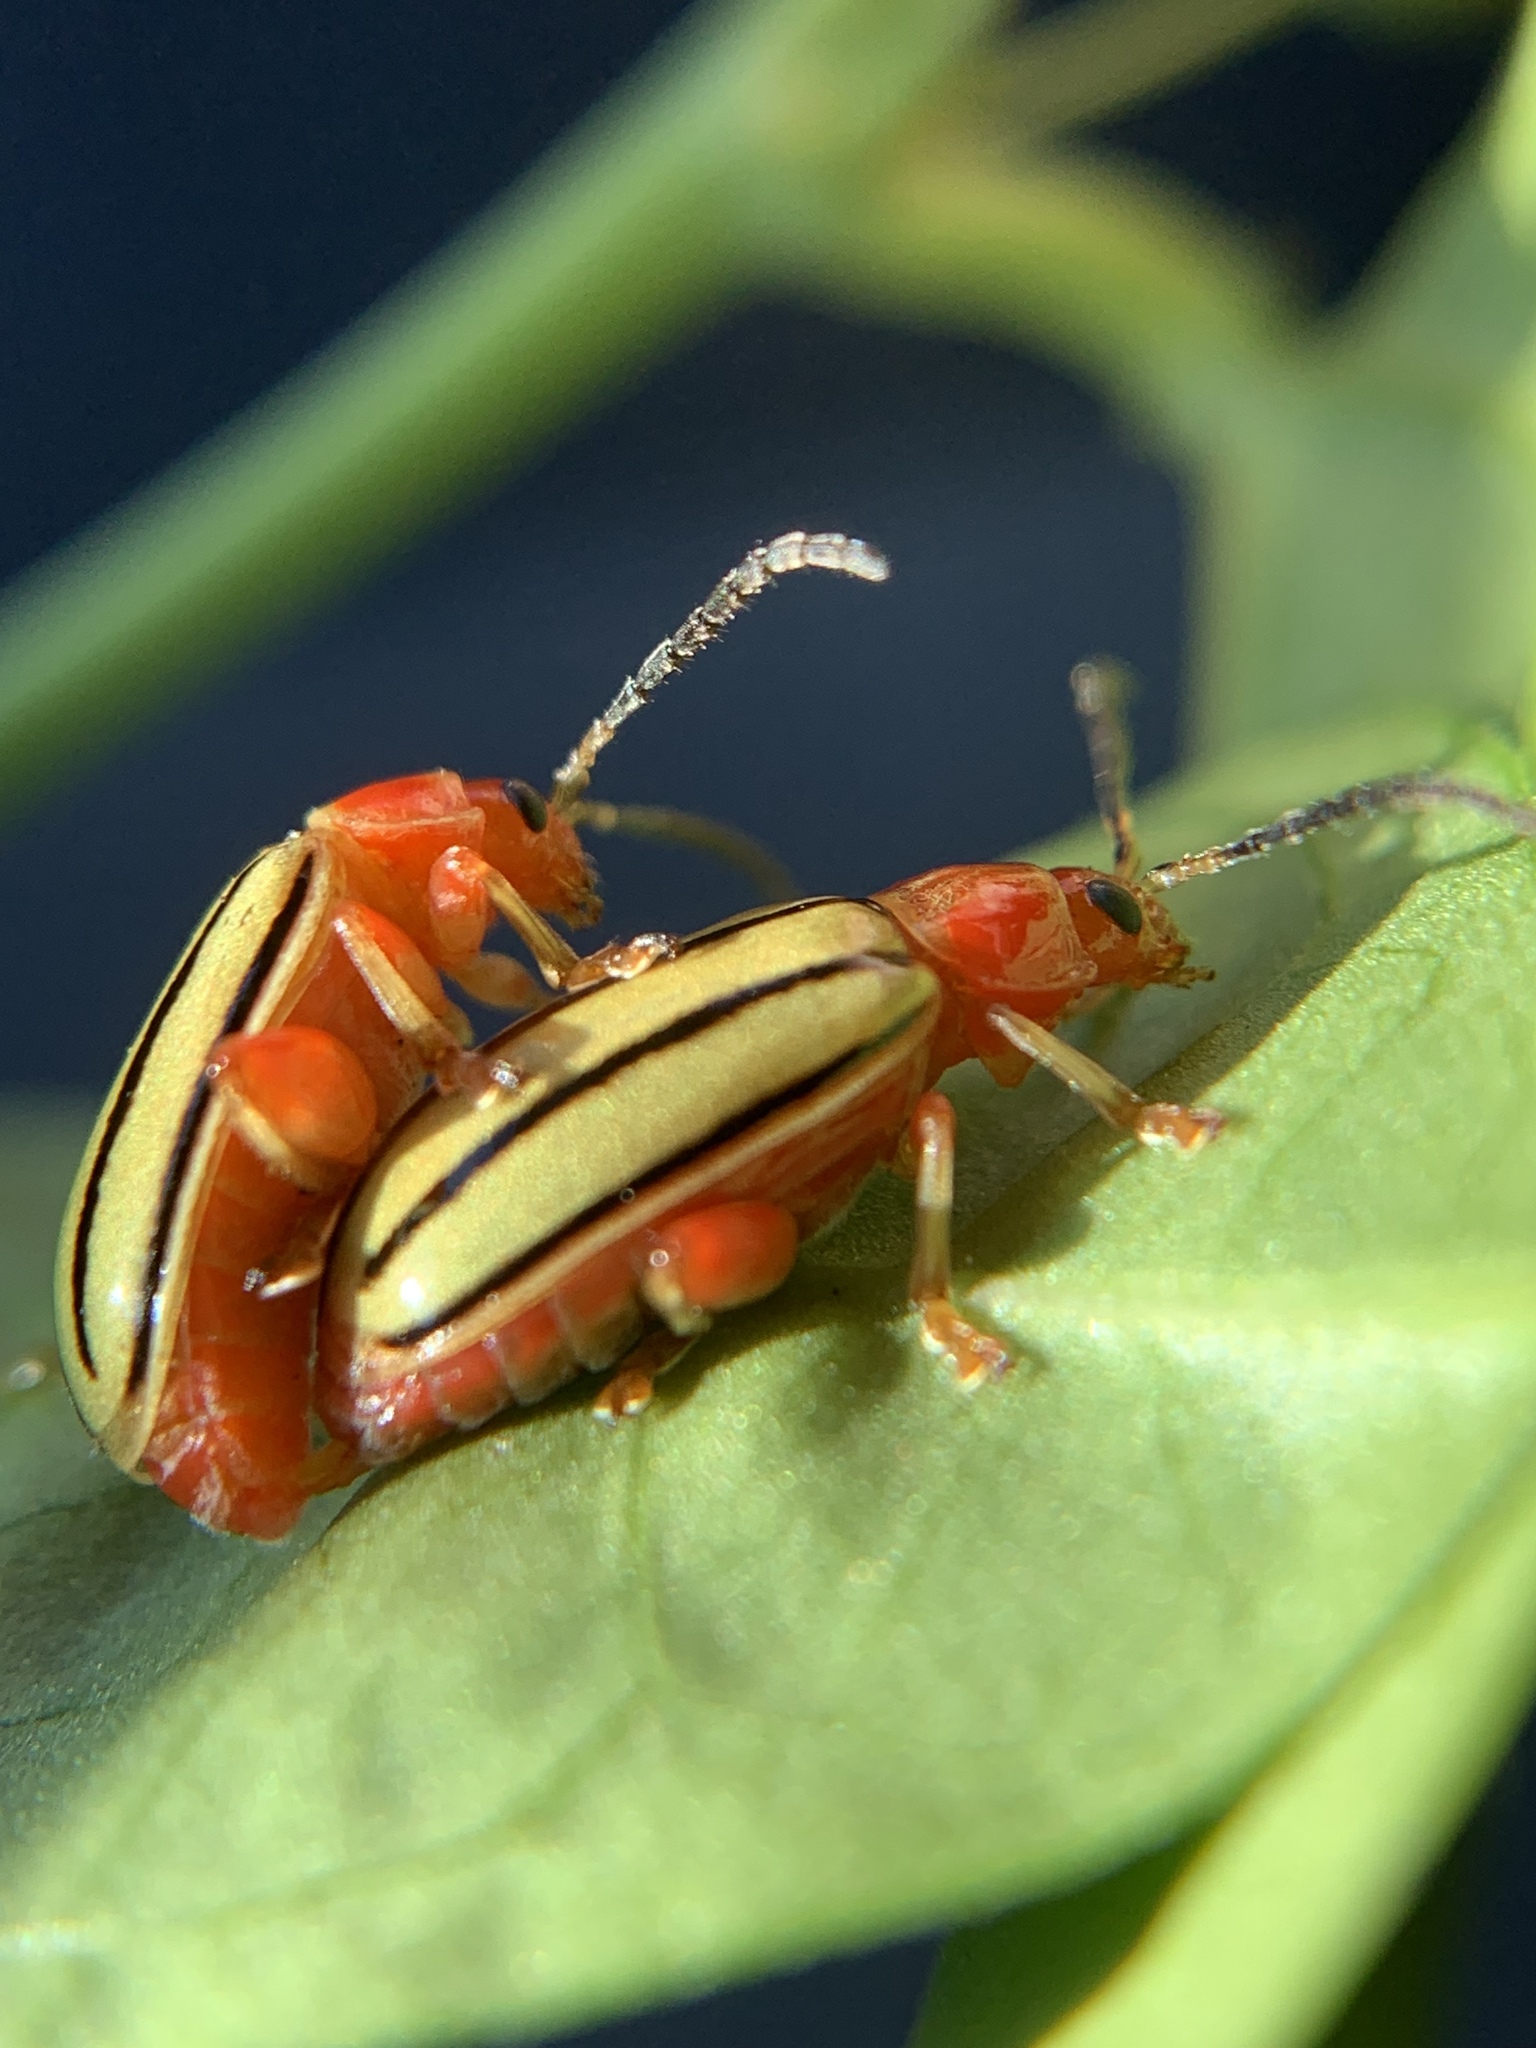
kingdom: Animalia
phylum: Arthropoda
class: Insecta
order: Coleoptera
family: Chrysomelidae
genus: Disonycha
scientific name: Disonycha
